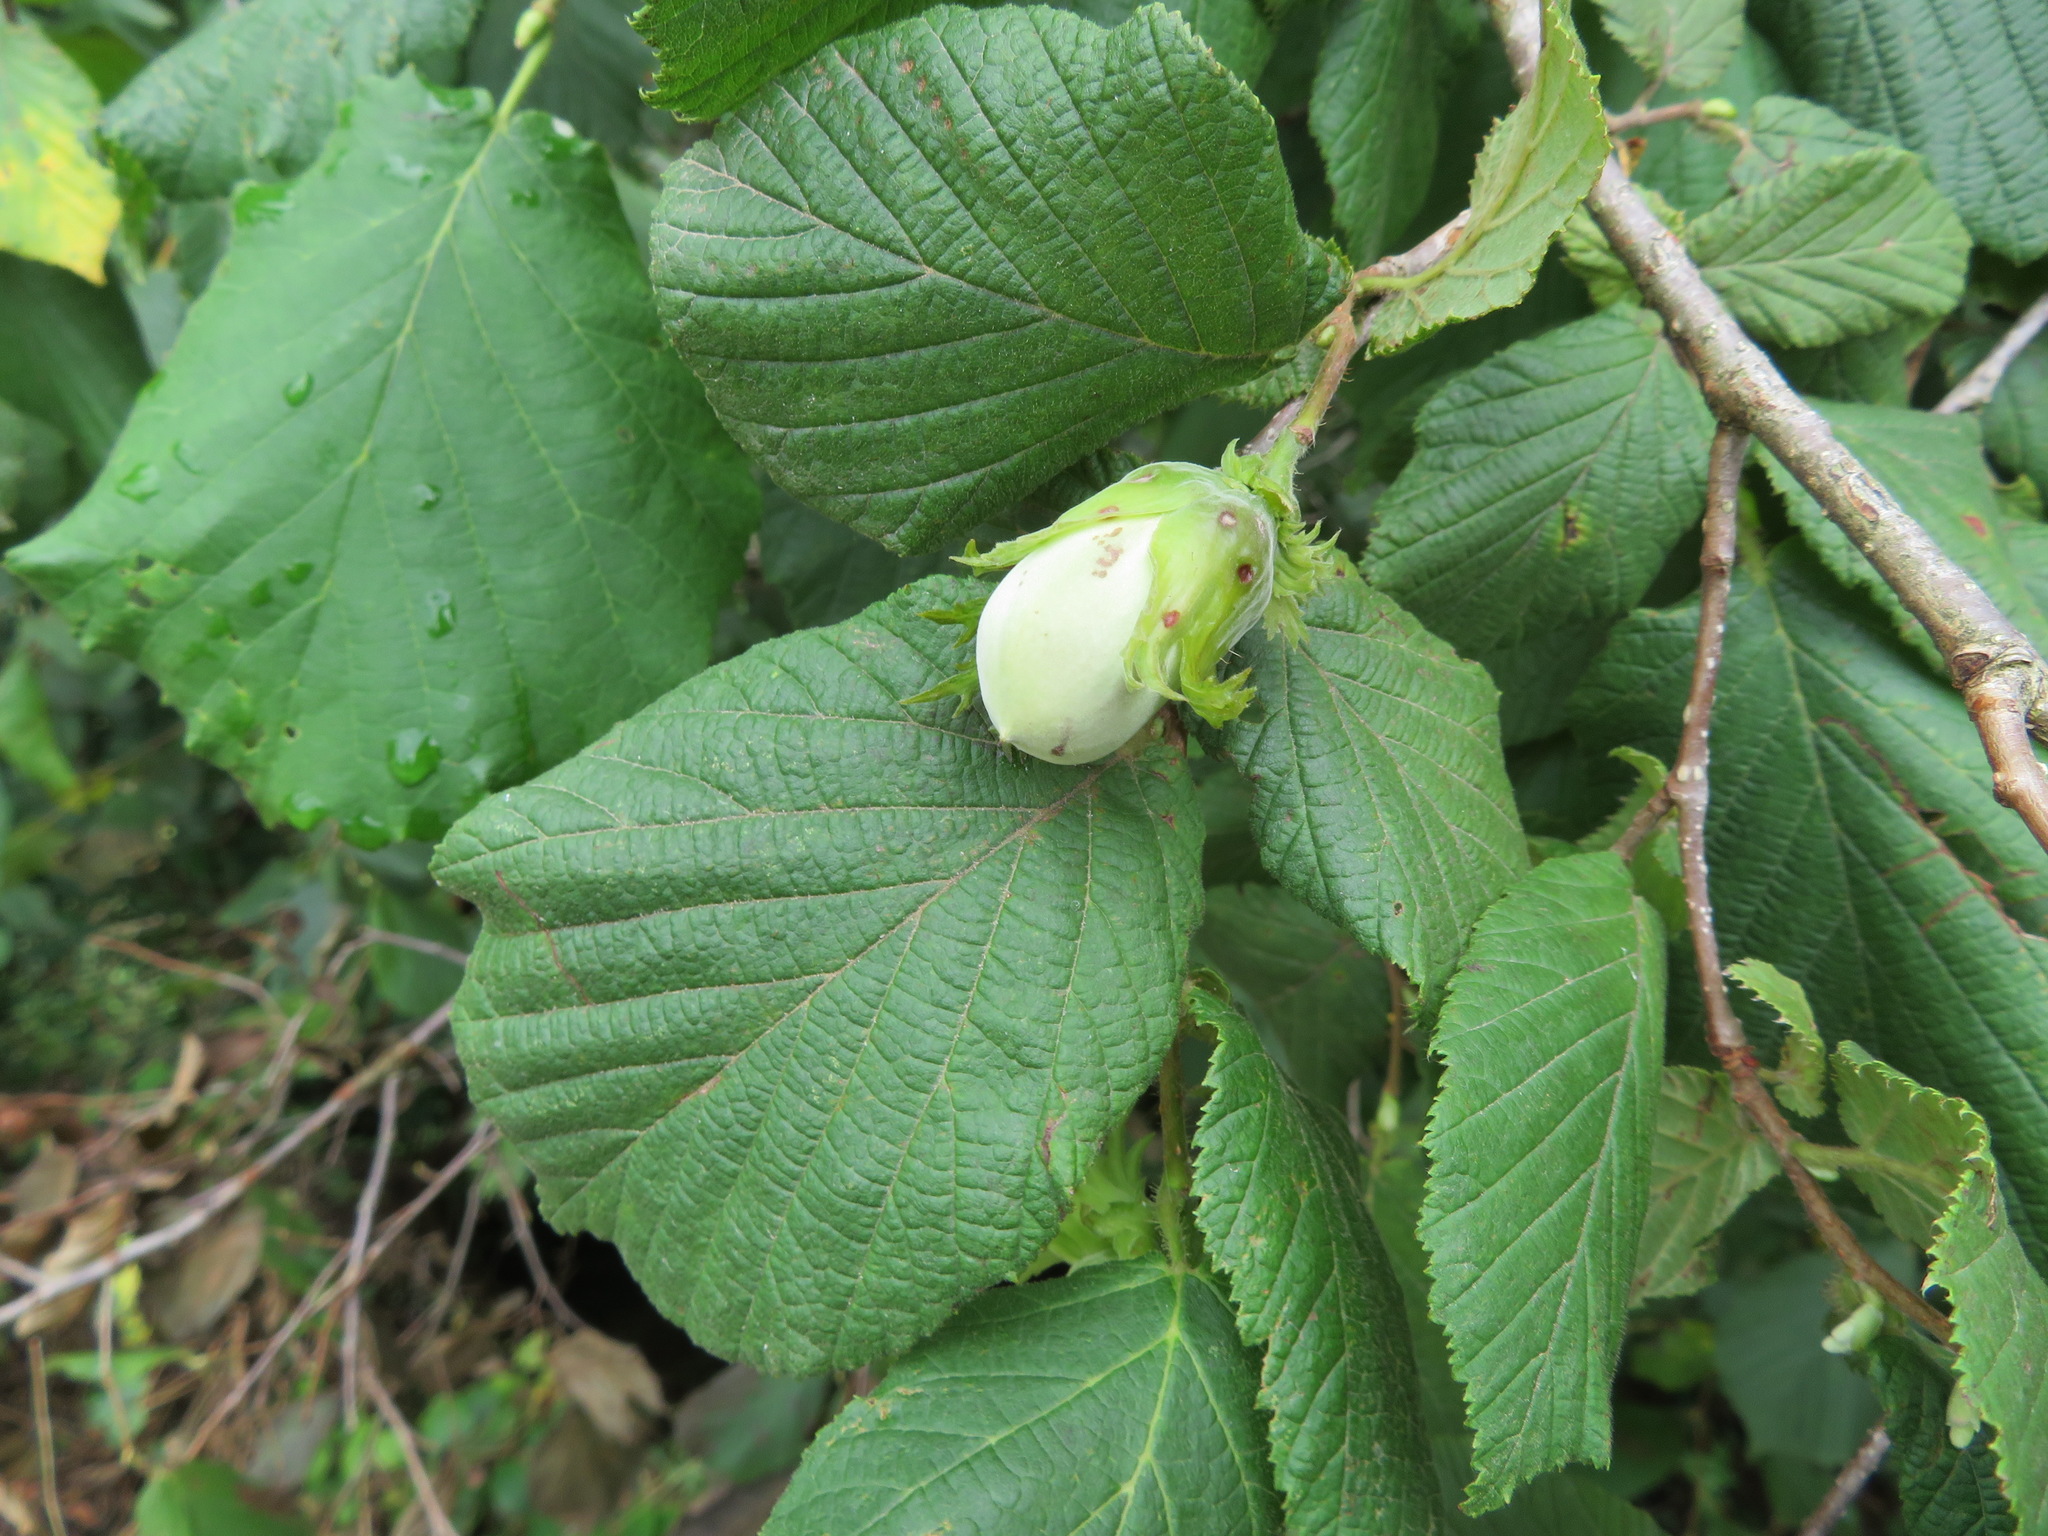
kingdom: Plantae
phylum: Tracheophyta
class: Magnoliopsida
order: Fagales
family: Betulaceae
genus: Corylus
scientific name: Corylus avellana
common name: European hazel
